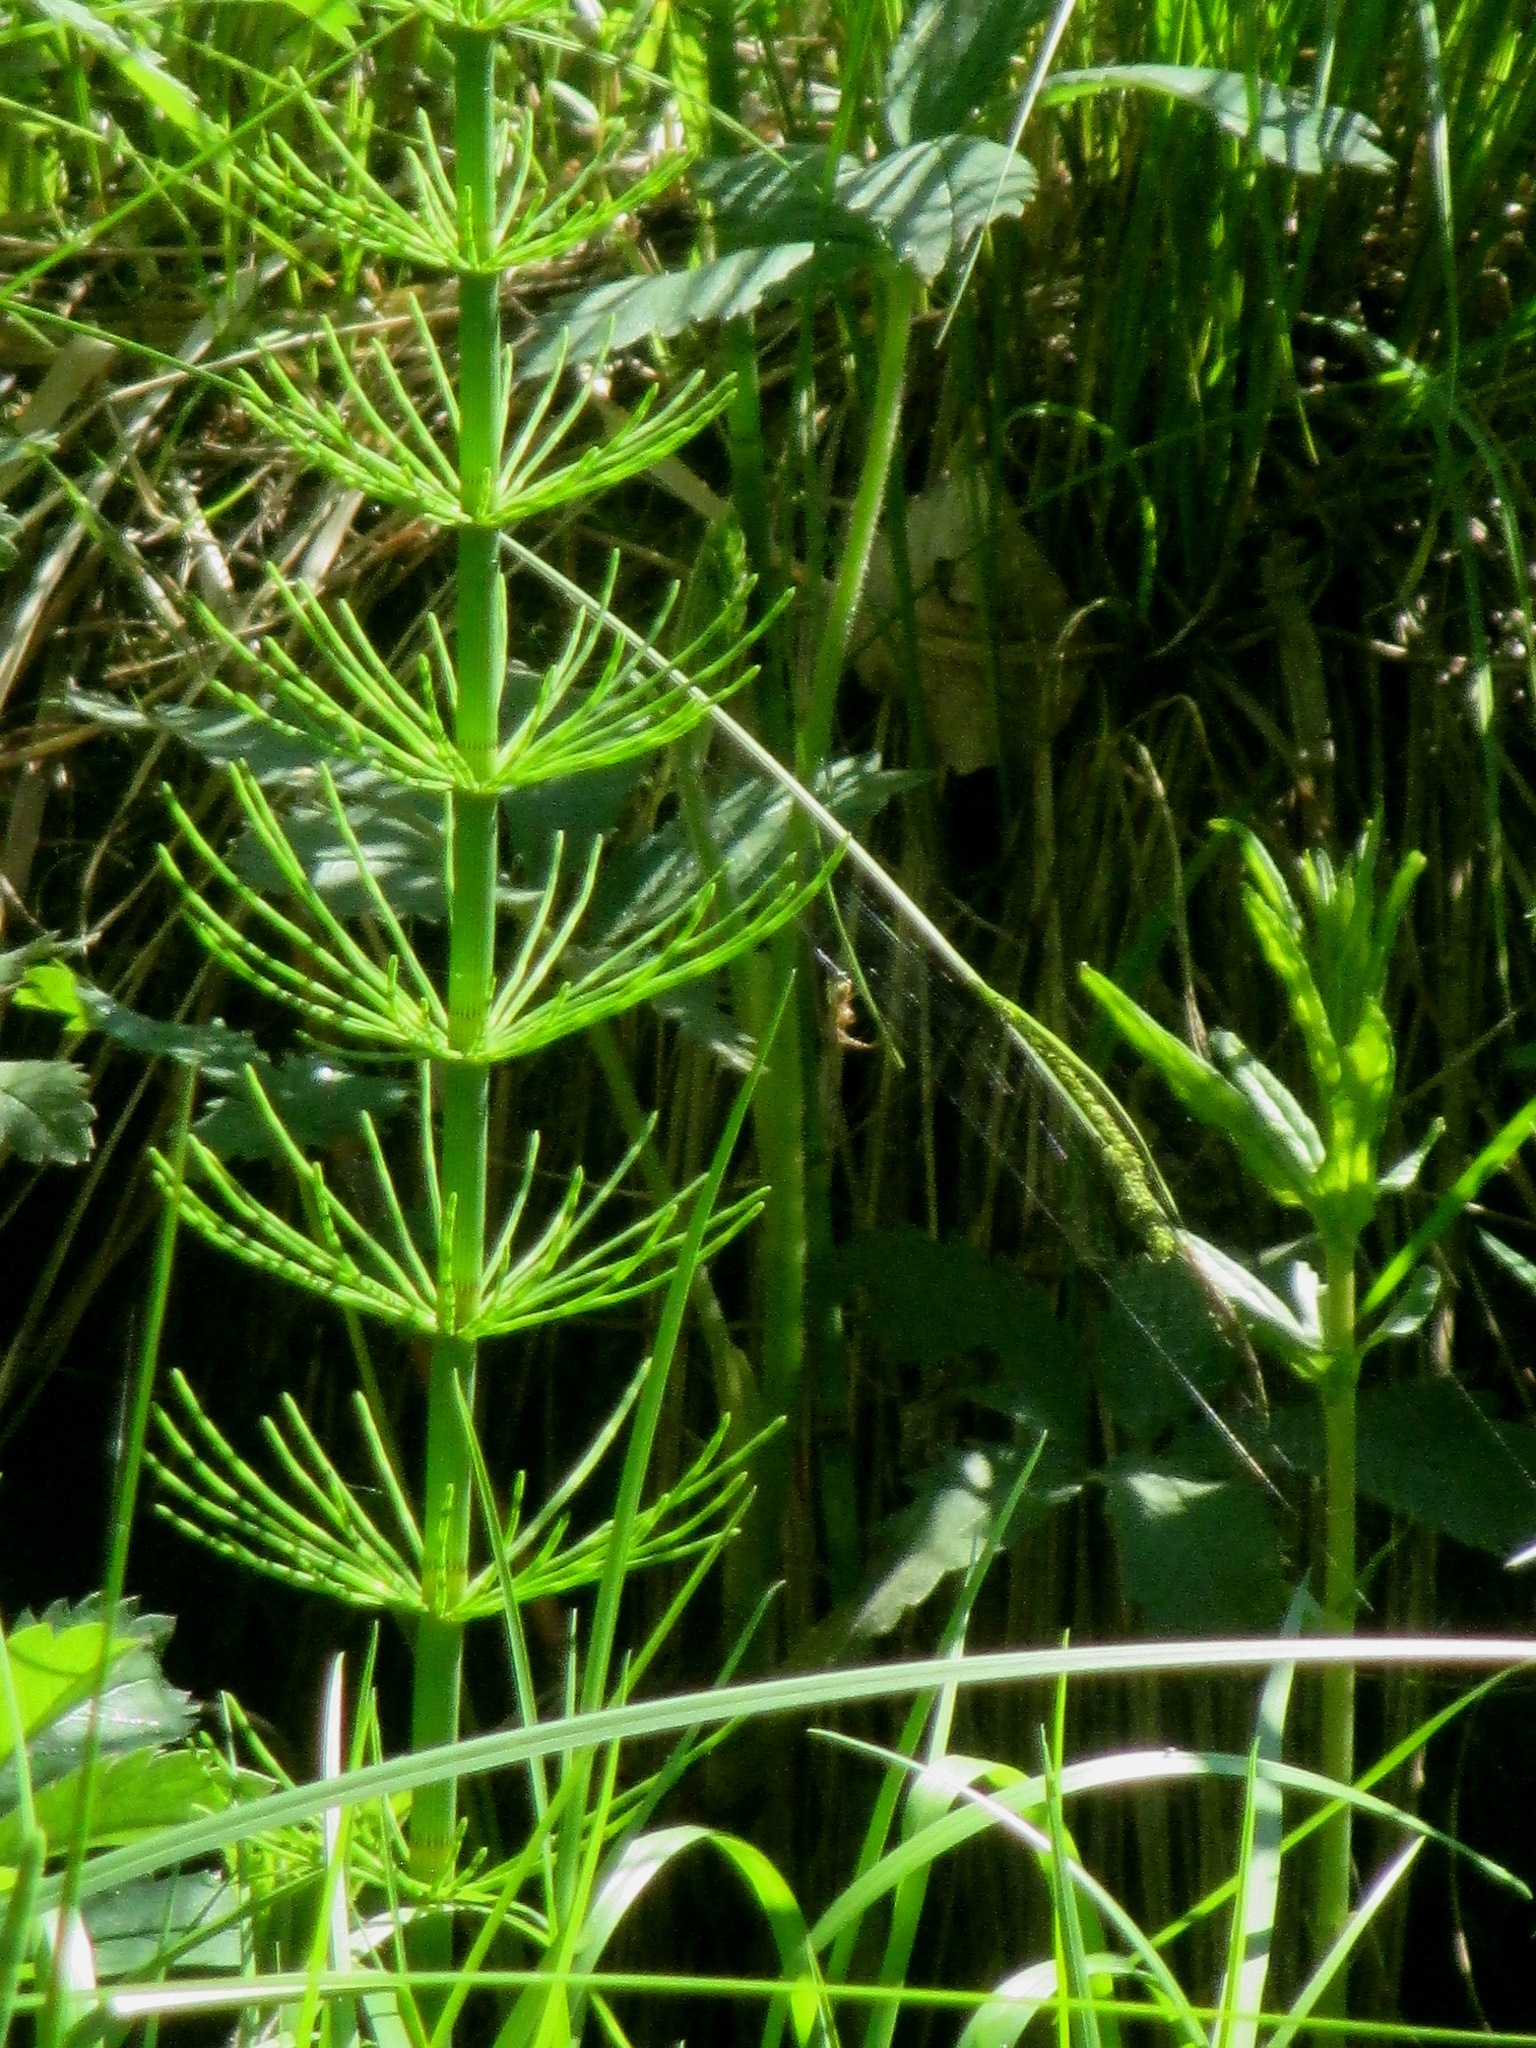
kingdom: Plantae
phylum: Tracheophyta
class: Polypodiopsida
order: Equisetales
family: Equisetaceae
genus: Equisetum
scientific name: Equisetum fluviatile
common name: Water horsetail
